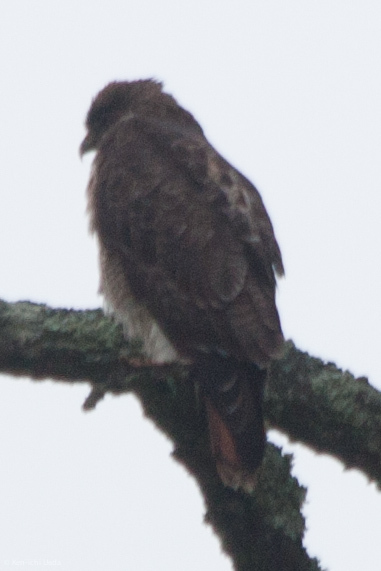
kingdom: Animalia
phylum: Chordata
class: Aves
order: Accipitriformes
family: Accipitridae
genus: Buteo
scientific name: Buteo jamaicensis
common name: Red-tailed hawk
